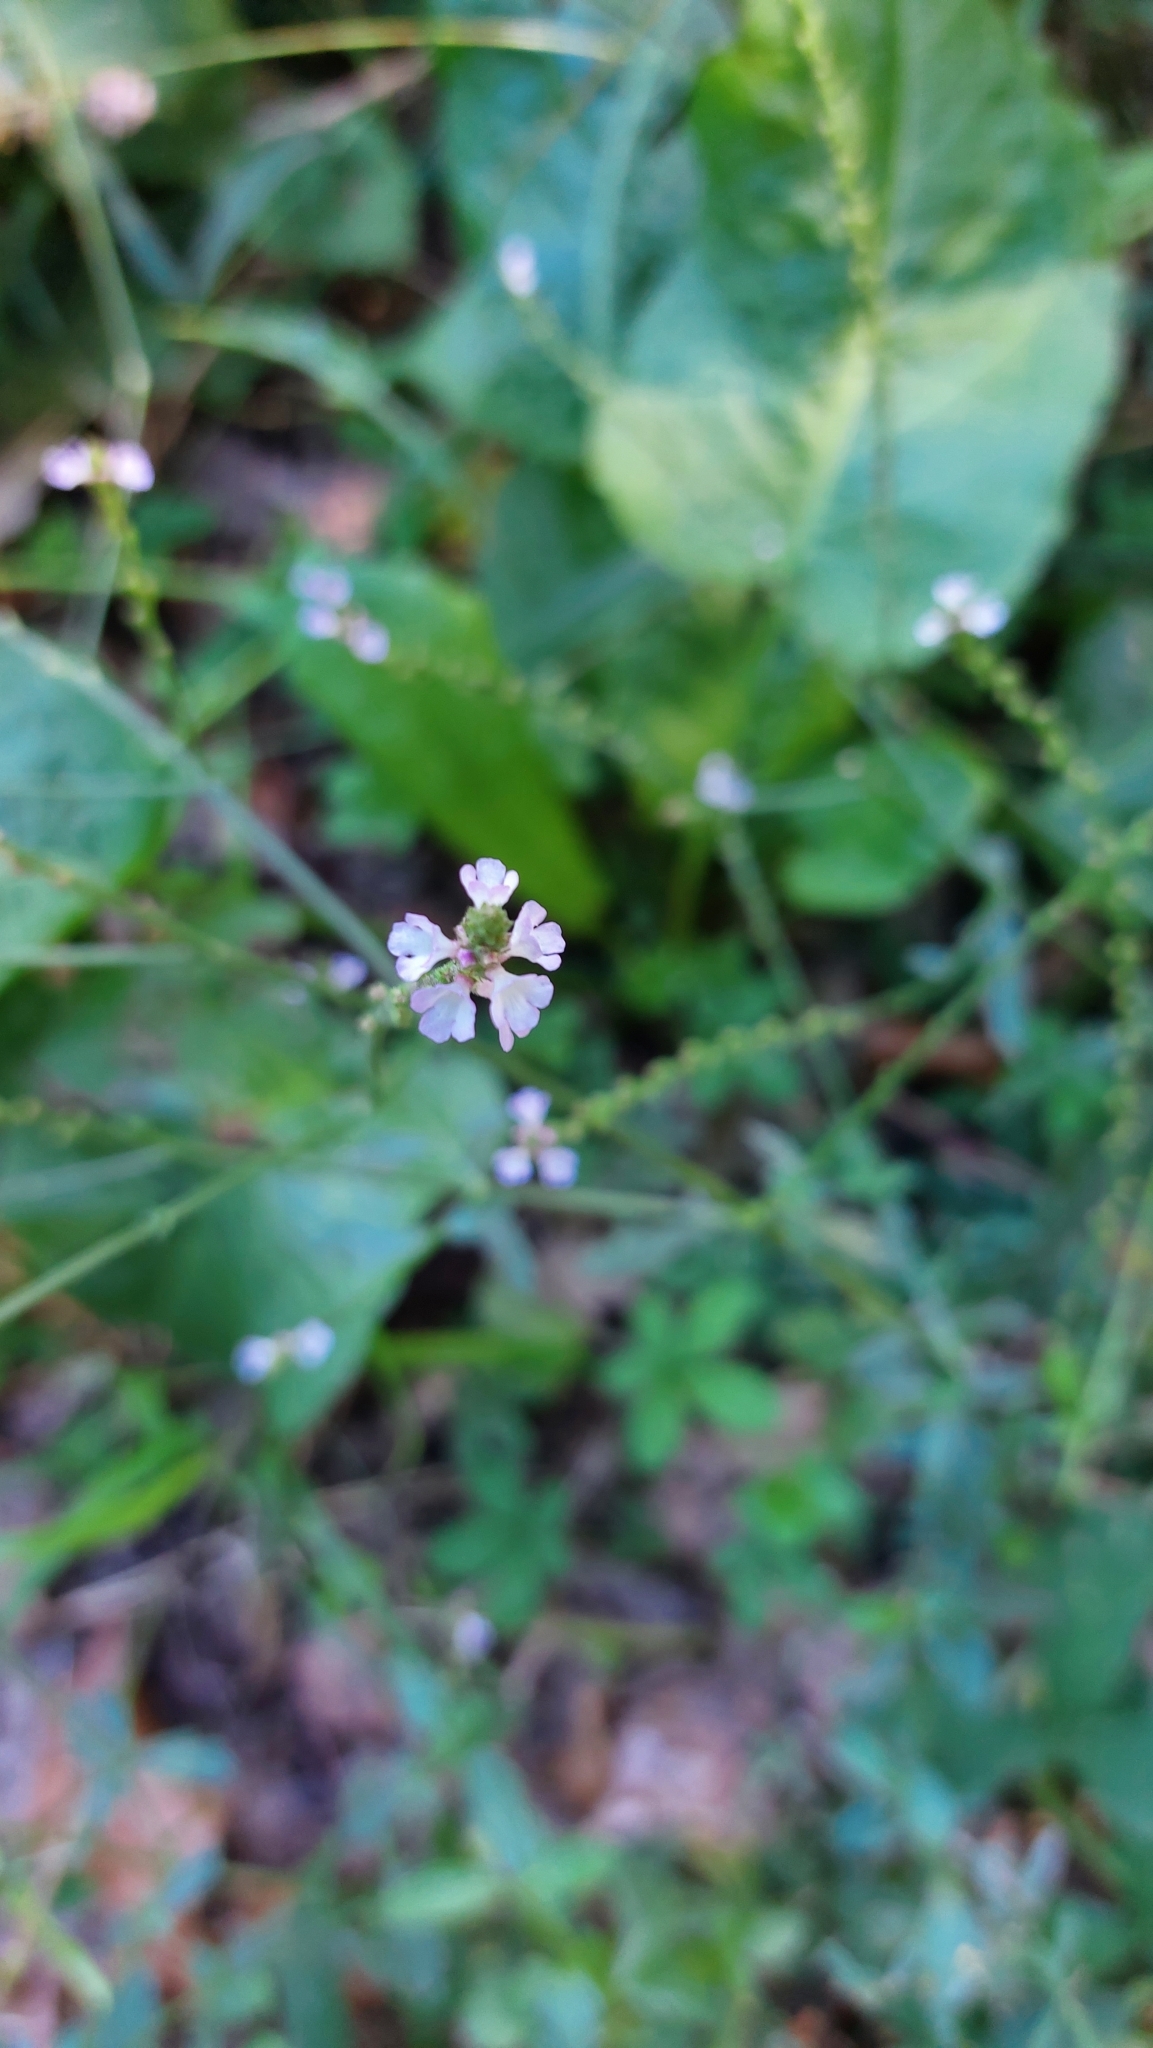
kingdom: Plantae
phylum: Tracheophyta
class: Magnoliopsida
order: Lamiales
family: Verbenaceae
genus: Verbena
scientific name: Verbena officinalis
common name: Vervain
